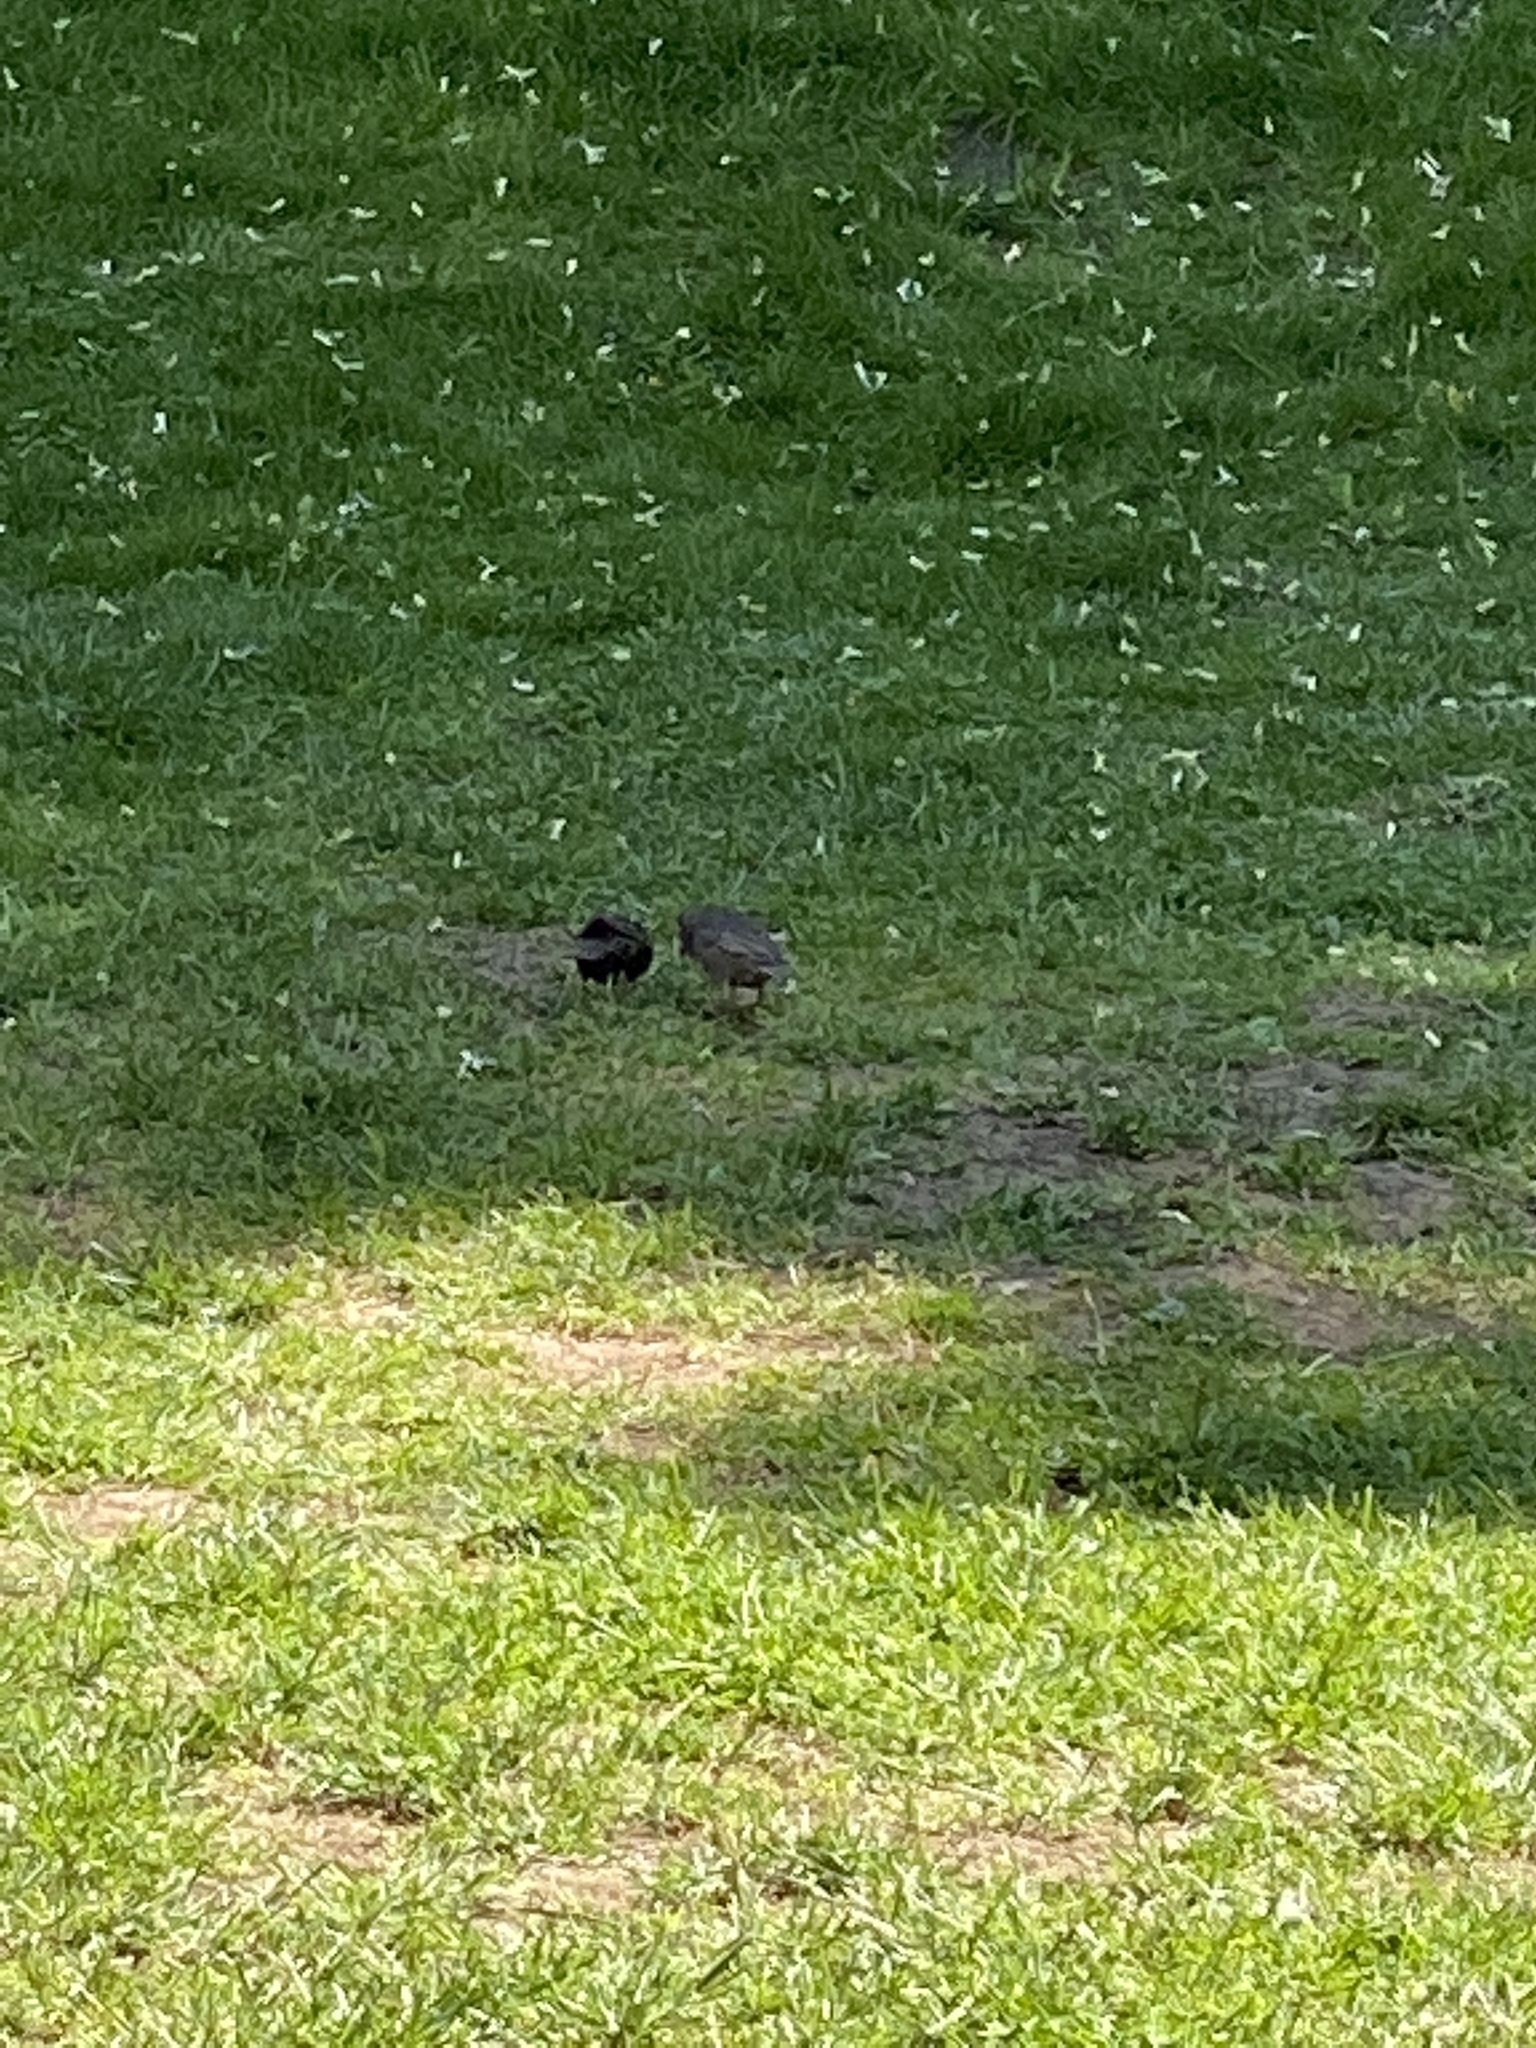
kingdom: Animalia
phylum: Chordata
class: Aves
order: Passeriformes
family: Sturnidae
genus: Sturnus
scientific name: Sturnus vulgaris
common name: Common starling
